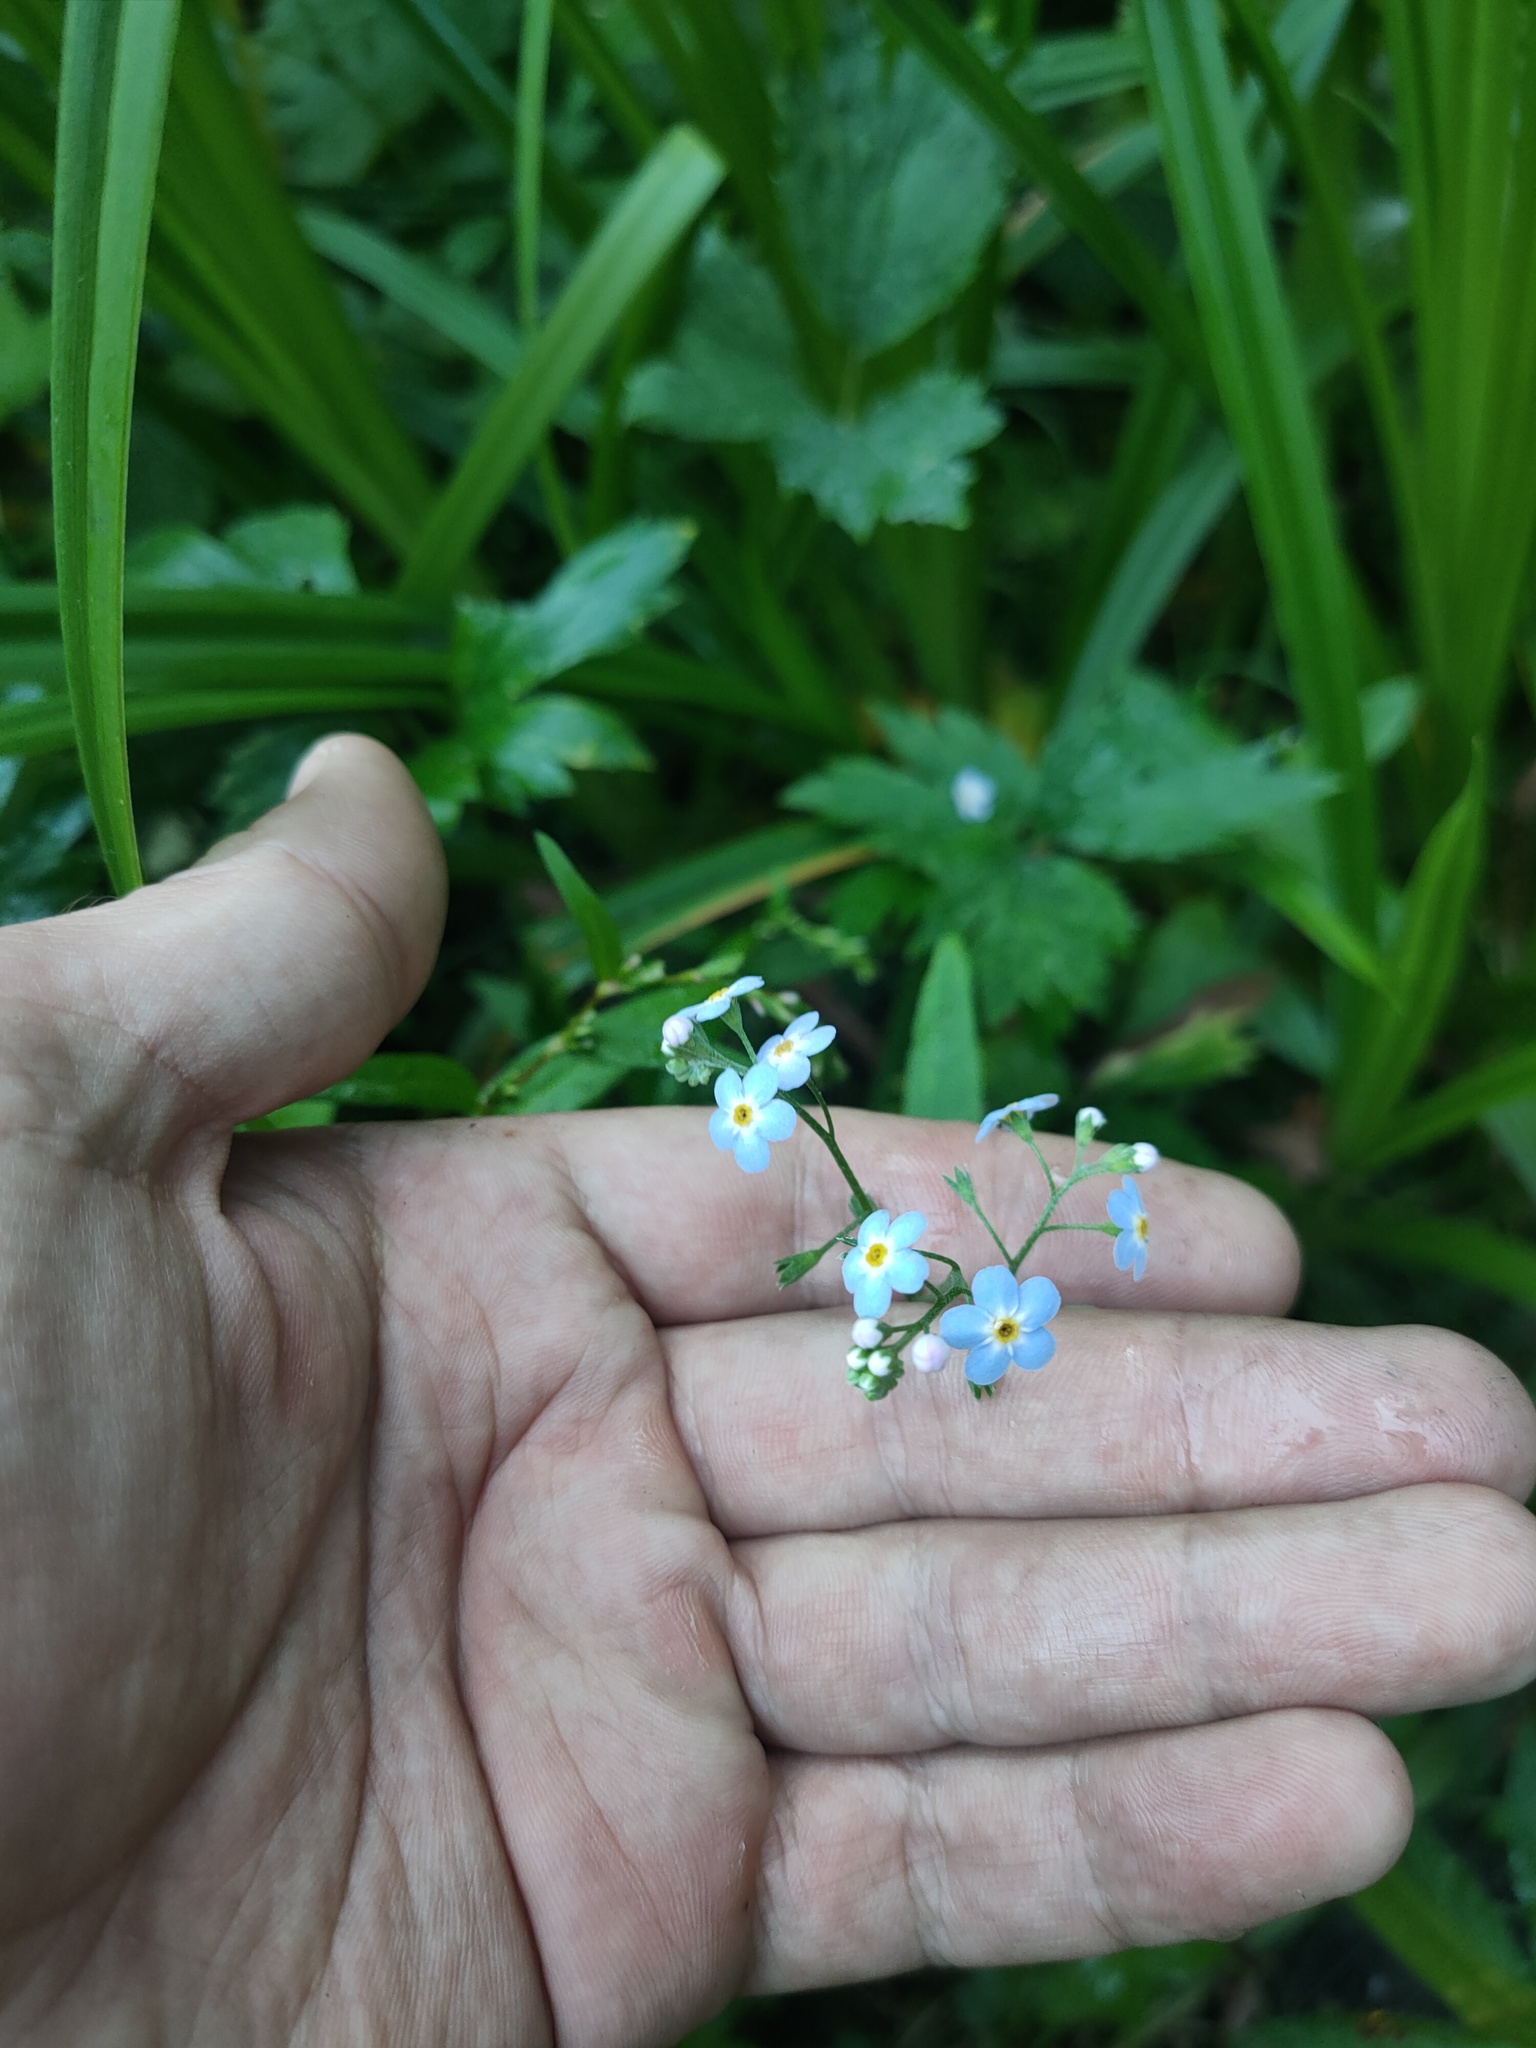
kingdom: Plantae
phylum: Tracheophyta
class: Magnoliopsida
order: Boraginales
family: Boraginaceae
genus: Myosotis
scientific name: Myosotis scorpioides
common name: Water forget-me-not
